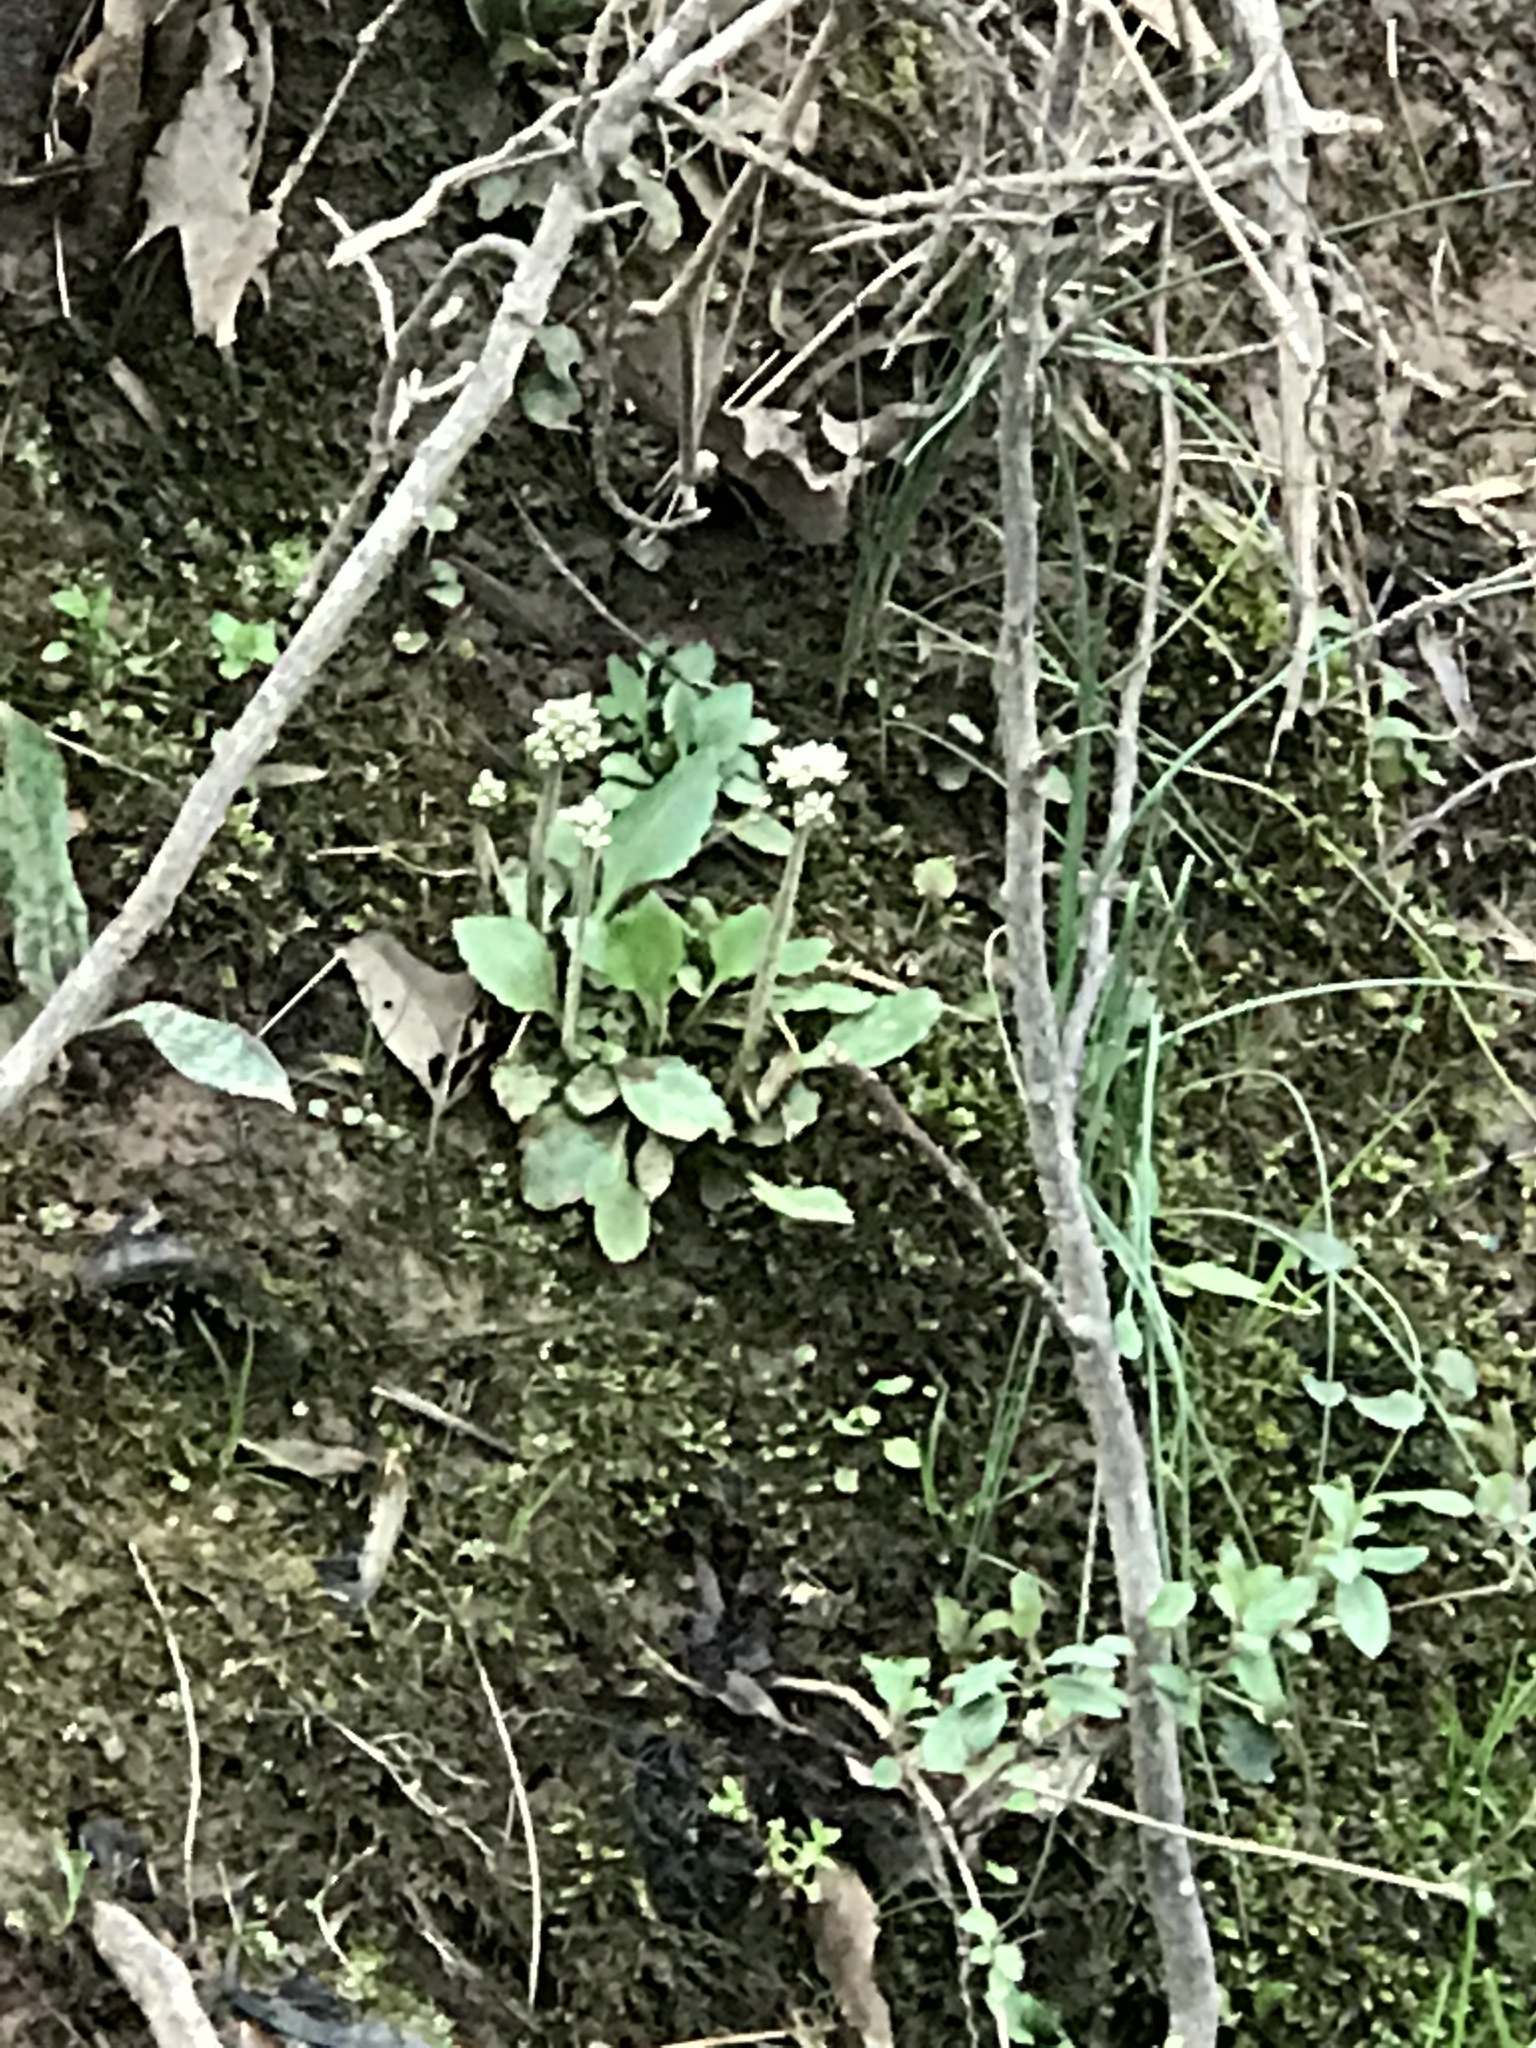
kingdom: Plantae
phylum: Tracheophyta
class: Magnoliopsida
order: Saxifragales
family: Saxifragaceae
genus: Micranthes
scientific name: Micranthes virginiensis
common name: Early saxifrage
